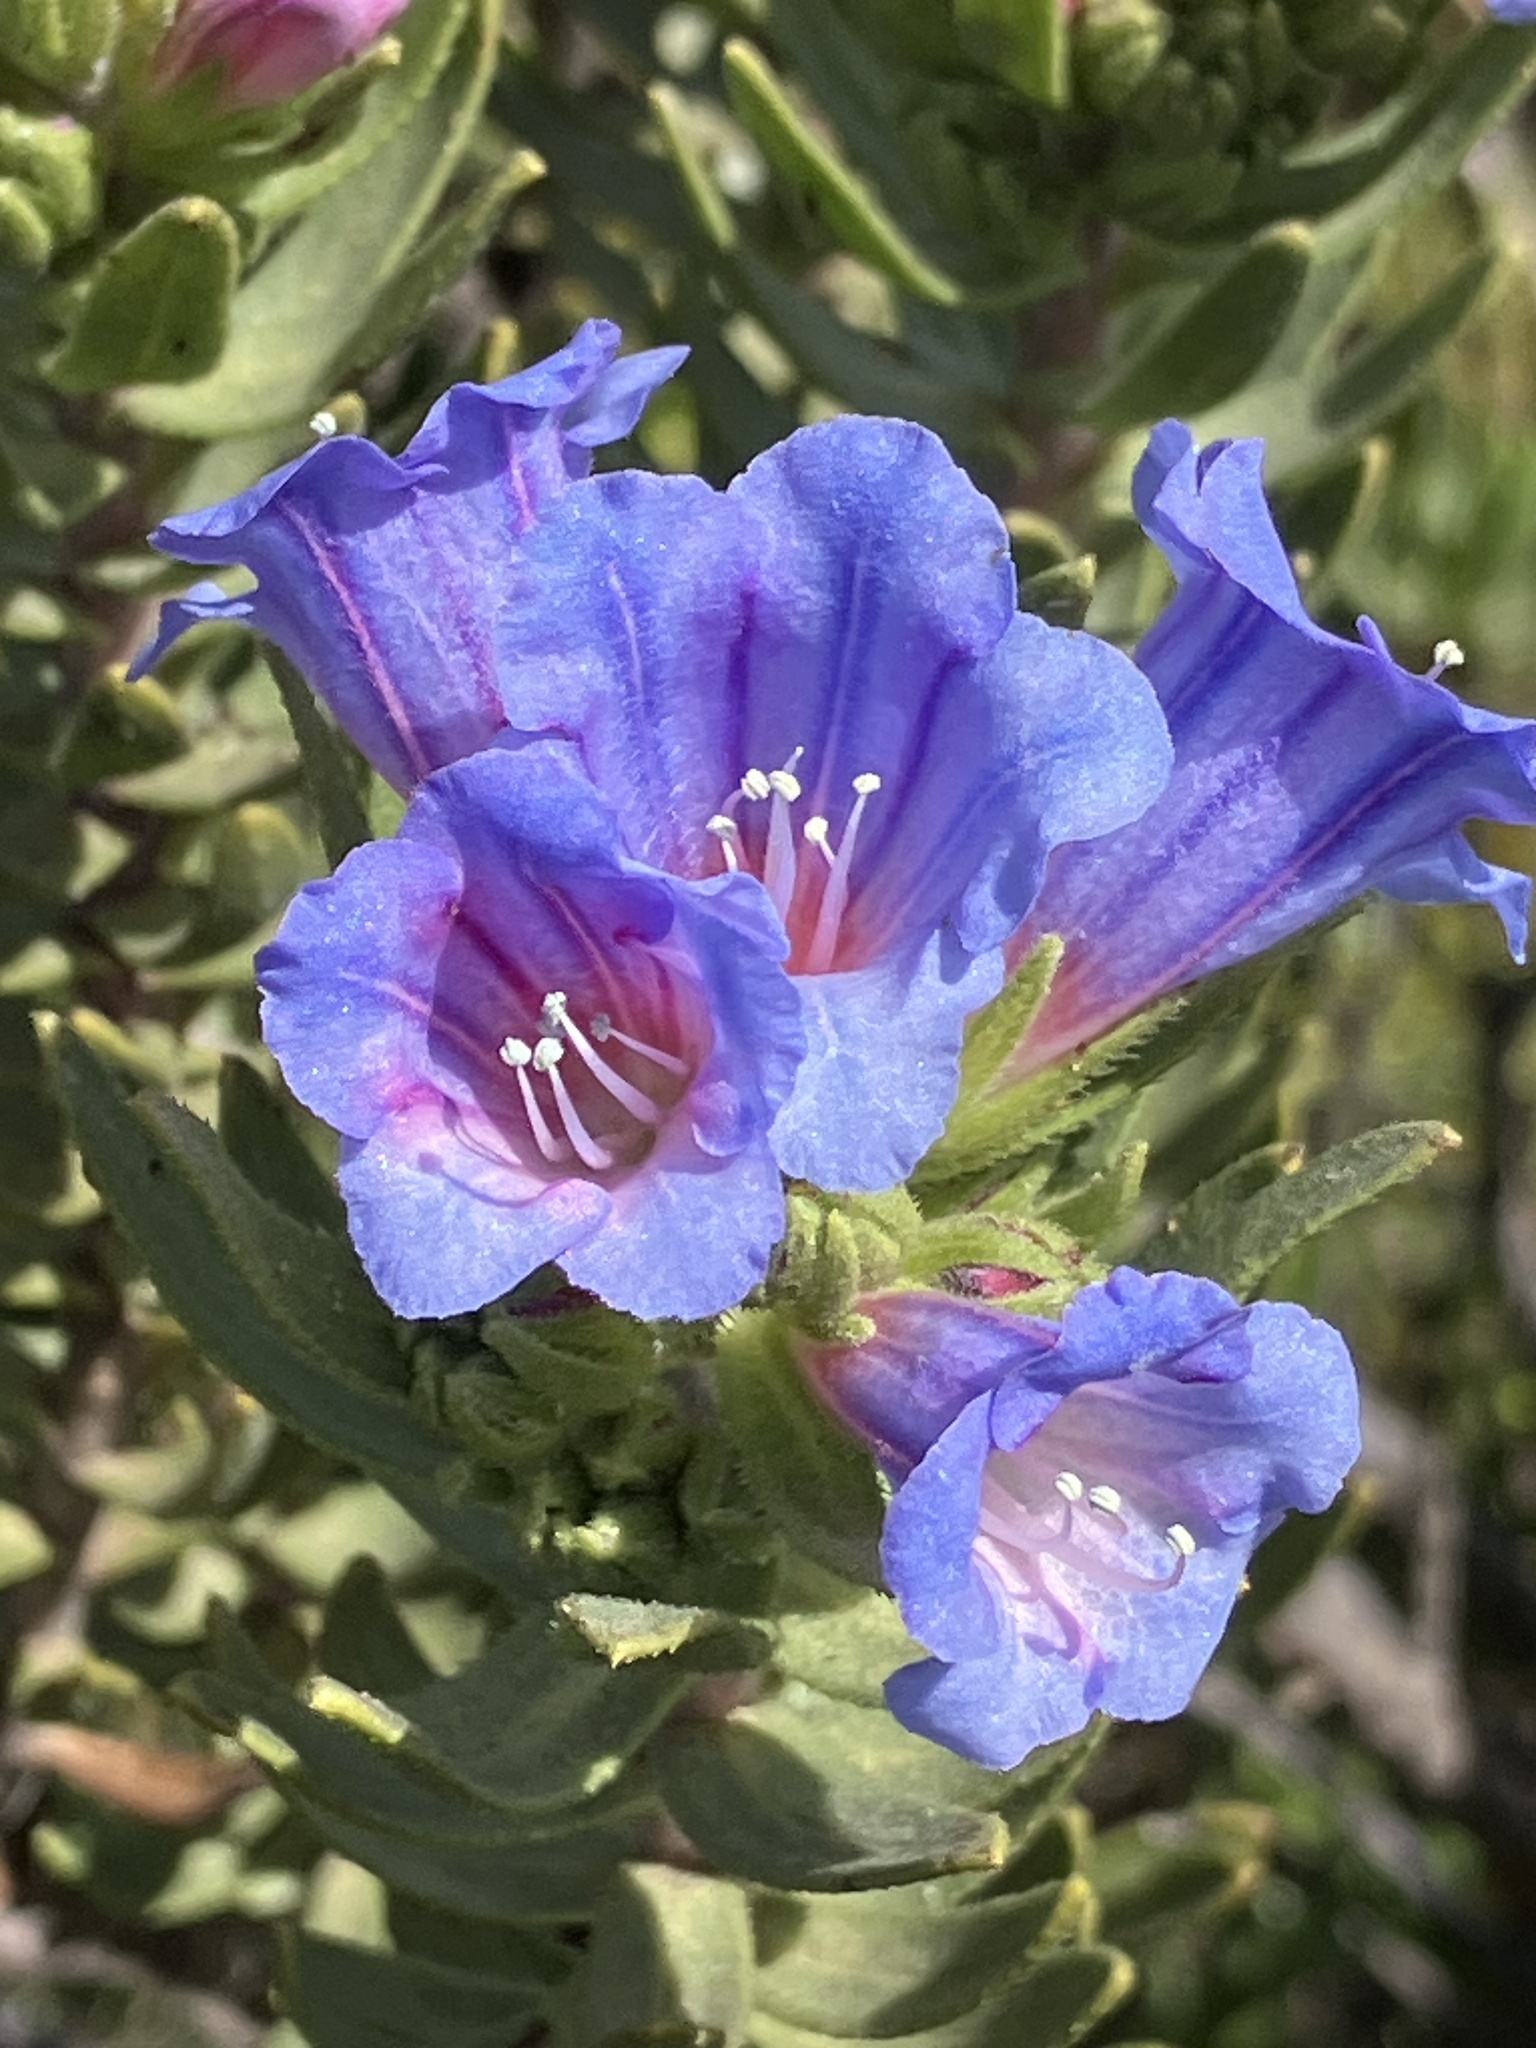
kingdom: Plantae
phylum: Tracheophyta
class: Magnoliopsida
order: Boraginales
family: Boraginaceae
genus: Lobostemon
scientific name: Lobostemon fruticosus
